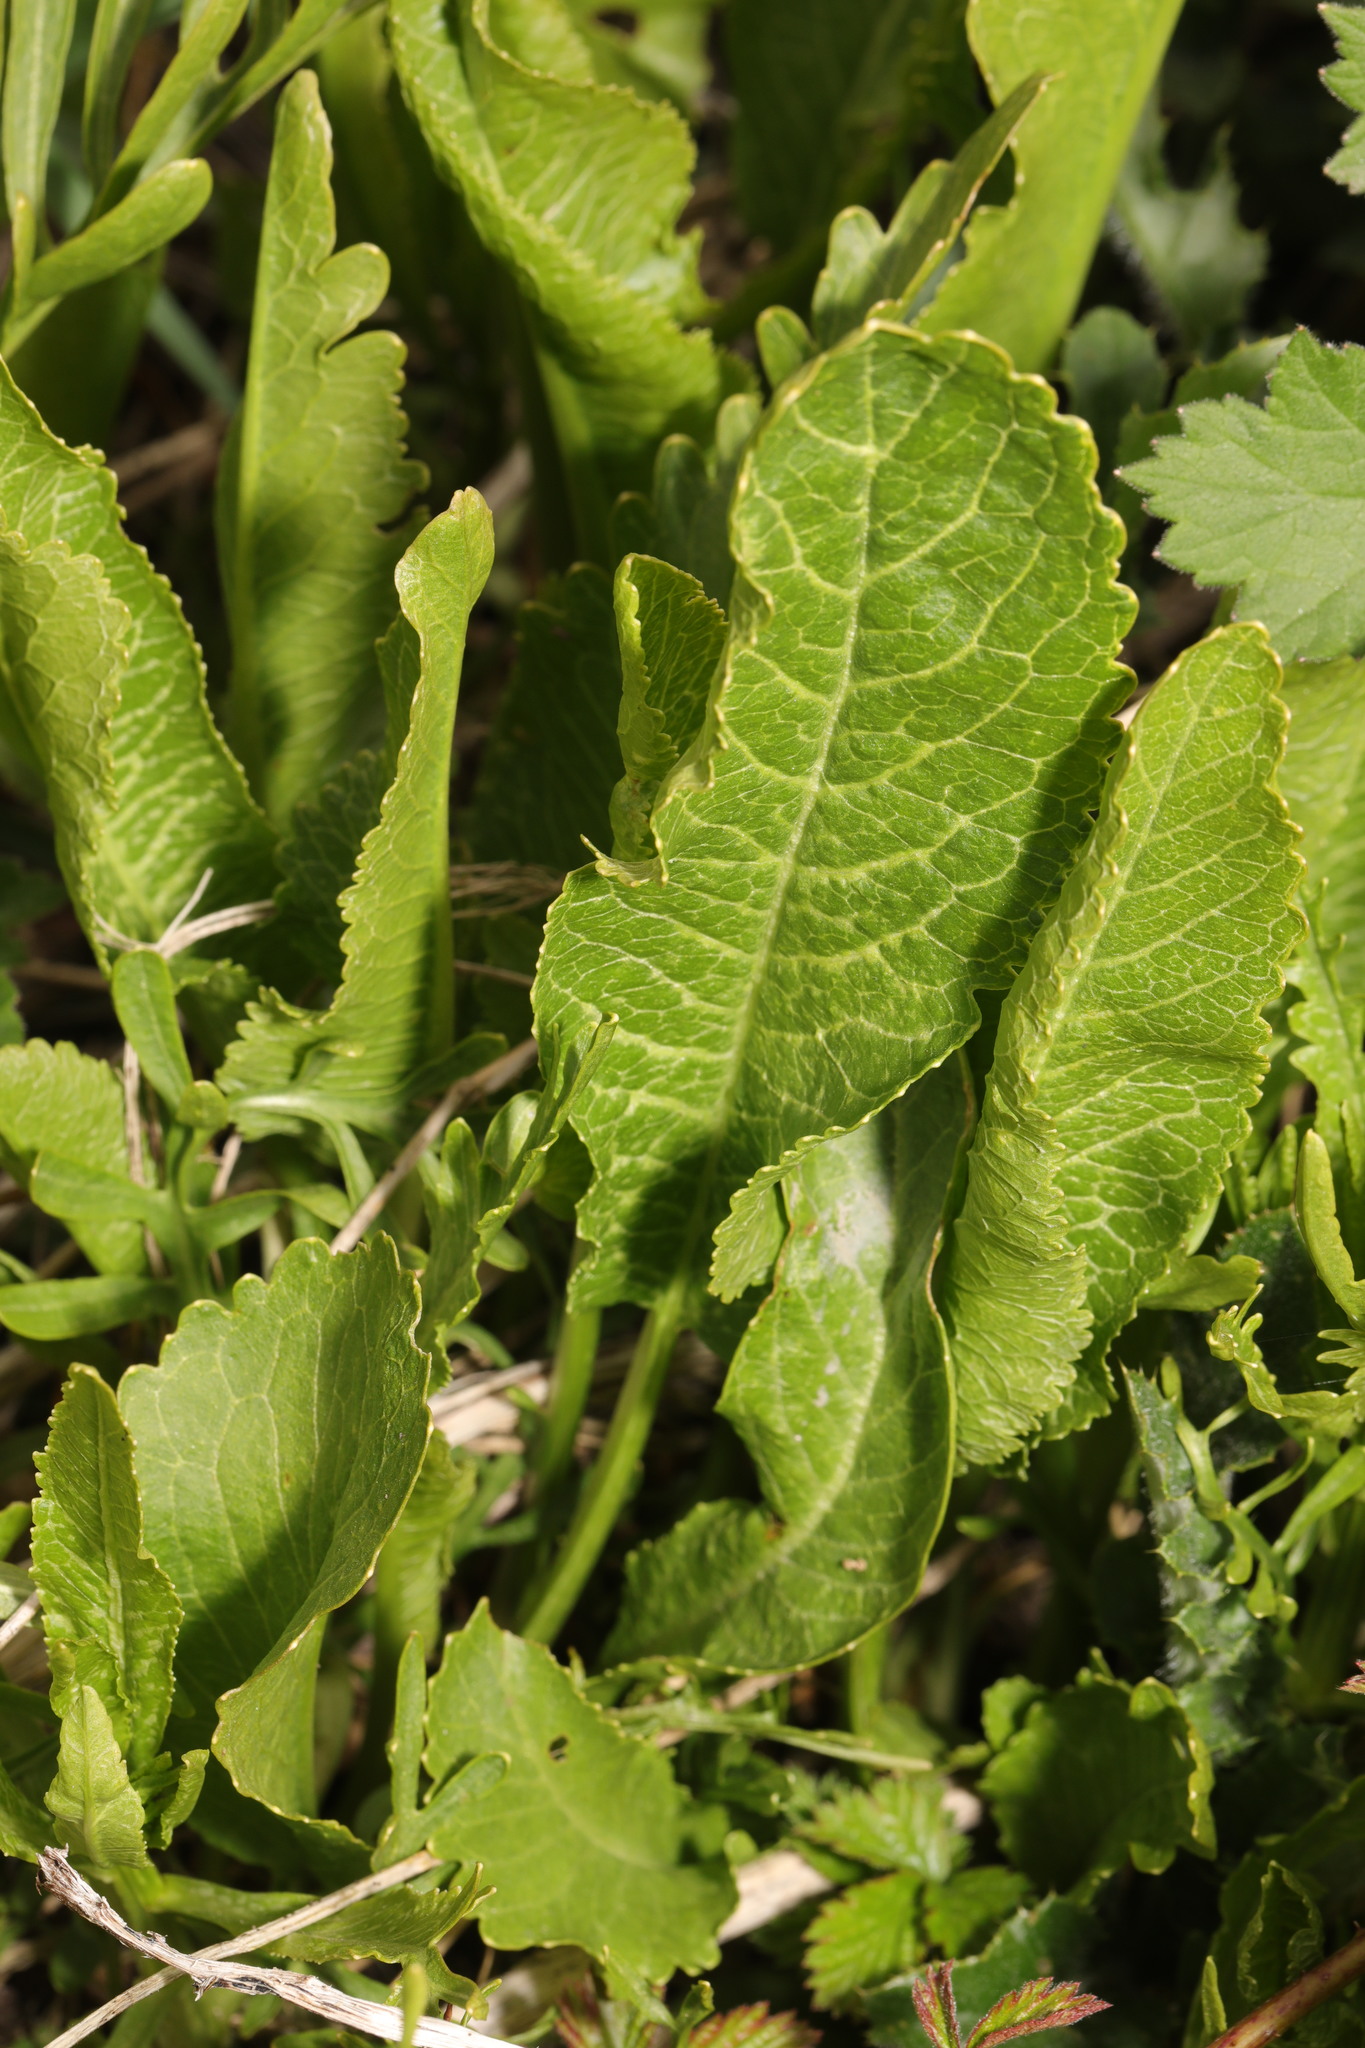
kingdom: Plantae
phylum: Tracheophyta
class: Magnoliopsida
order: Brassicales
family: Brassicaceae
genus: Armoracia
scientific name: Armoracia rusticana
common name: Horseradish
